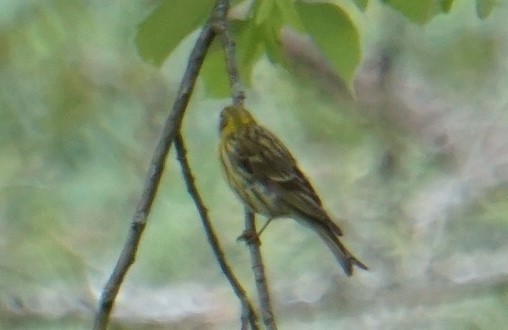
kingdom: Animalia
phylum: Chordata
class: Aves
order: Passeriformes
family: Fringillidae
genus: Serinus
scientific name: Serinus serinus
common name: European serin
